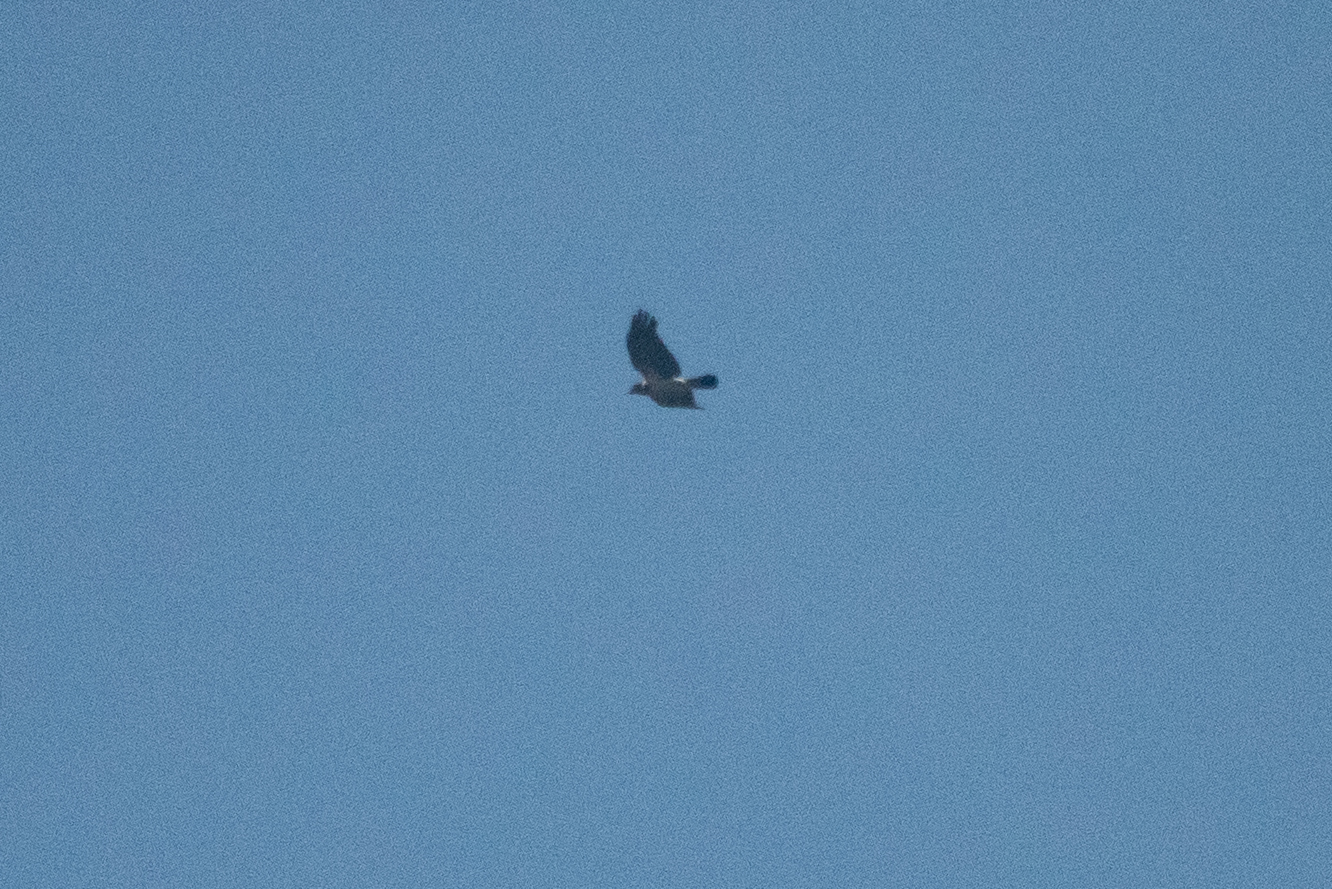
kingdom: Animalia
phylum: Chordata
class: Aves
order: Passeriformes
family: Corvidae
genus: Corvus
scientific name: Corvus cornix
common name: Hooded crow
